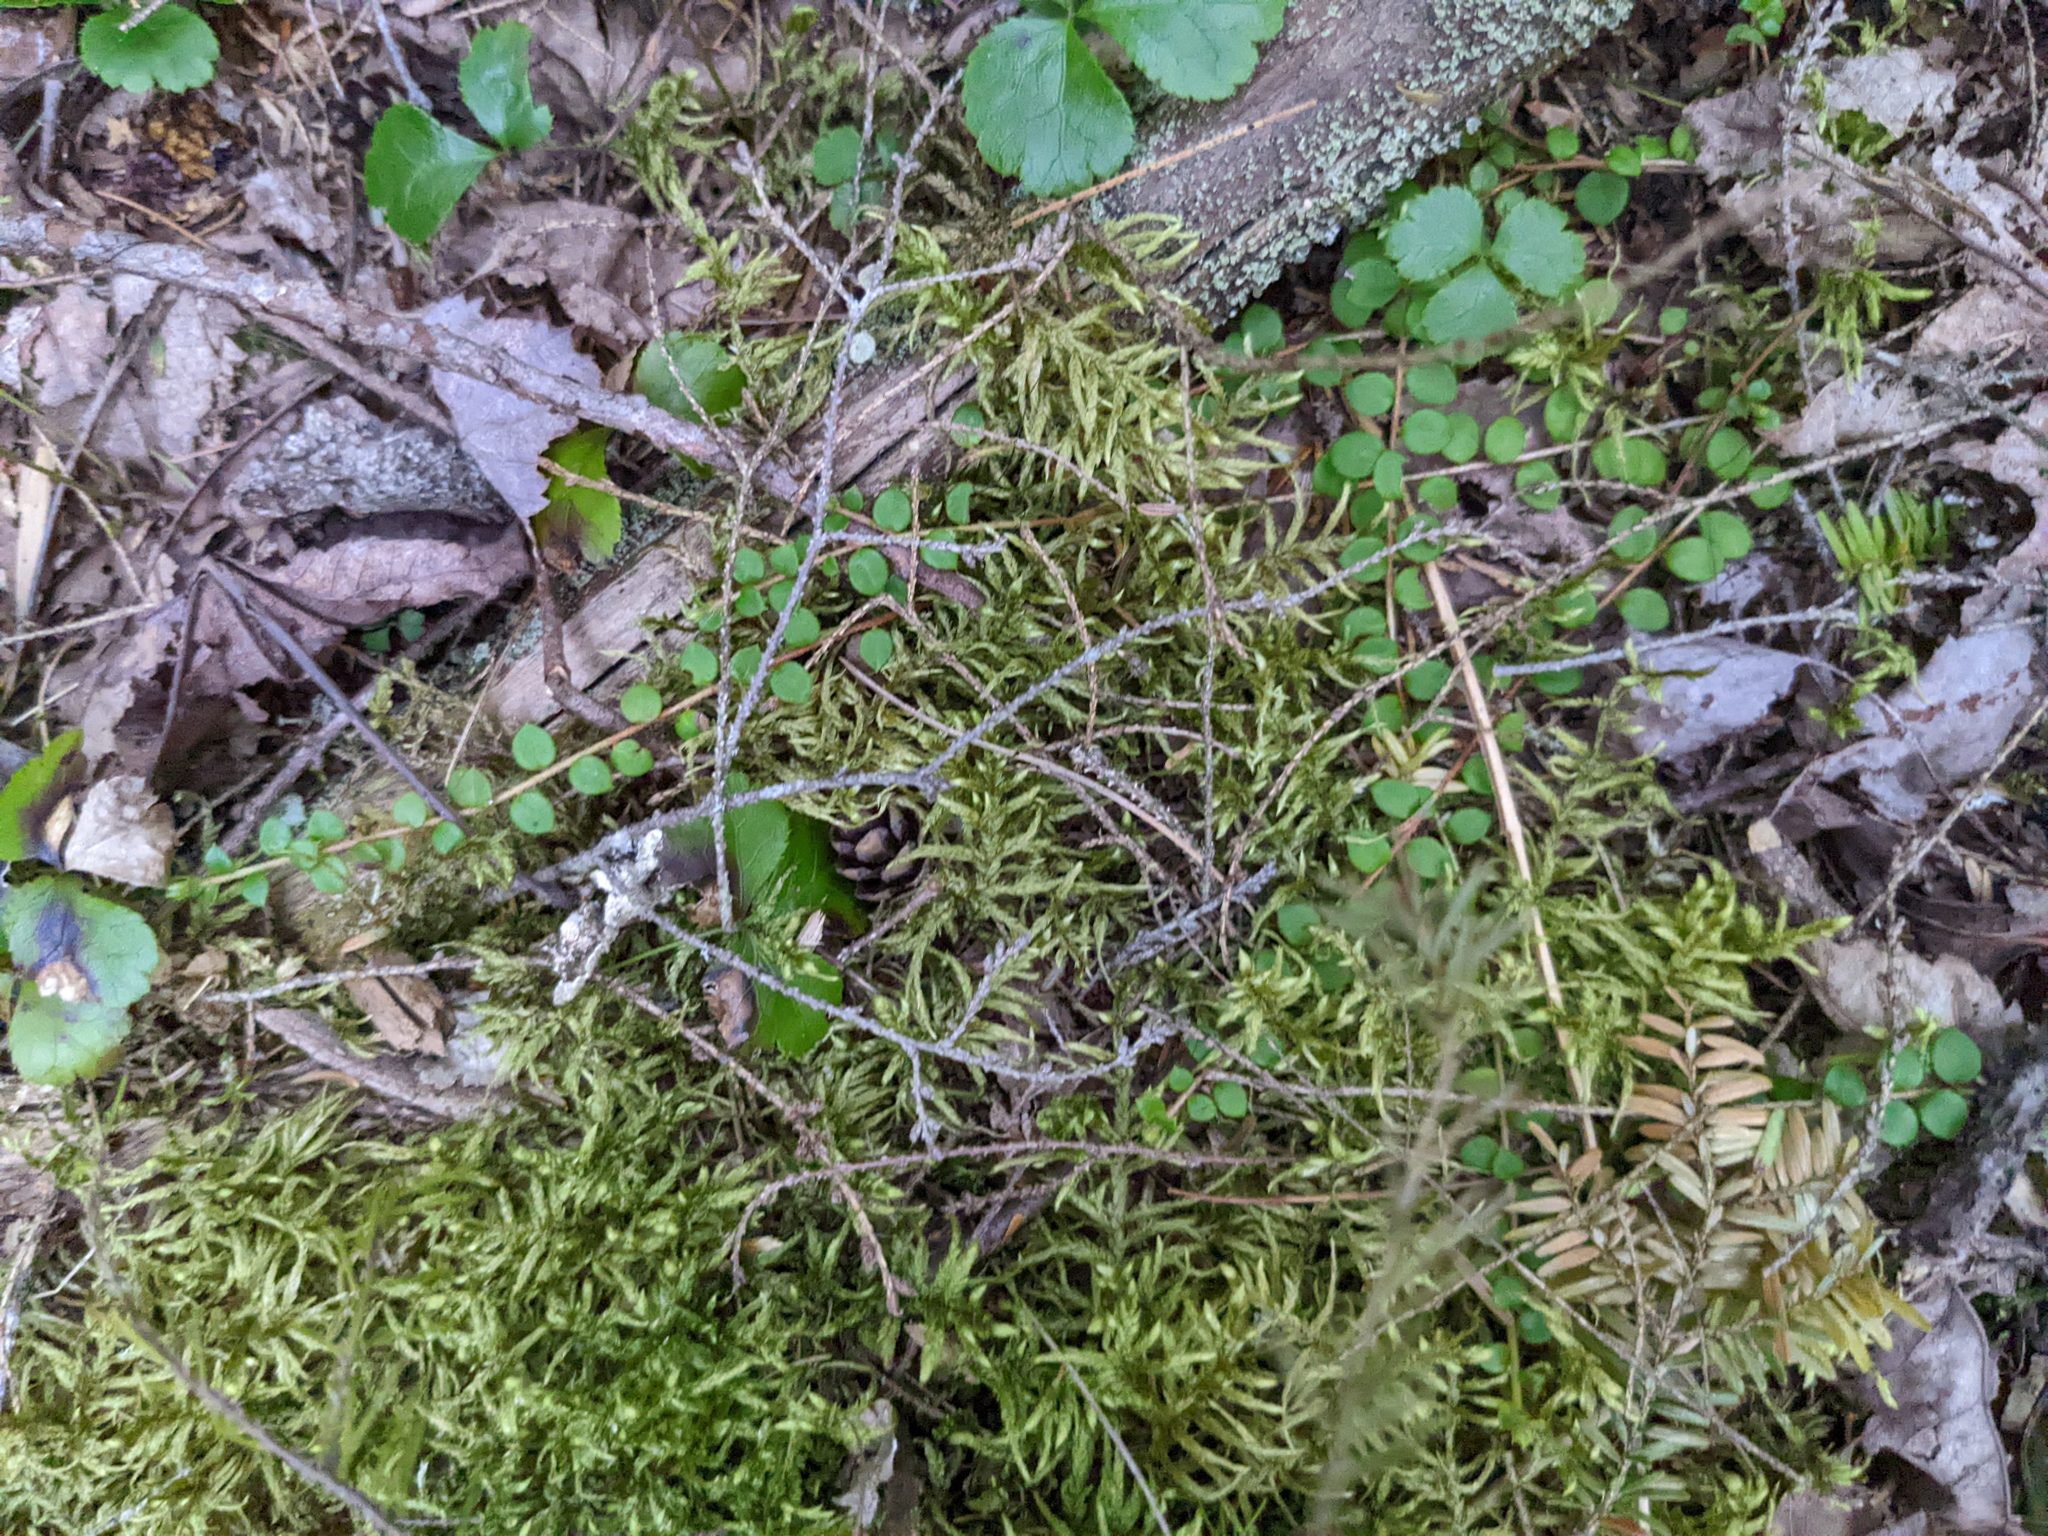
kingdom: Plantae
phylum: Tracheophyta
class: Magnoliopsida
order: Ericales
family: Ericaceae
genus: Gaultheria
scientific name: Gaultheria hispidula
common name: Cancer wintergreen
